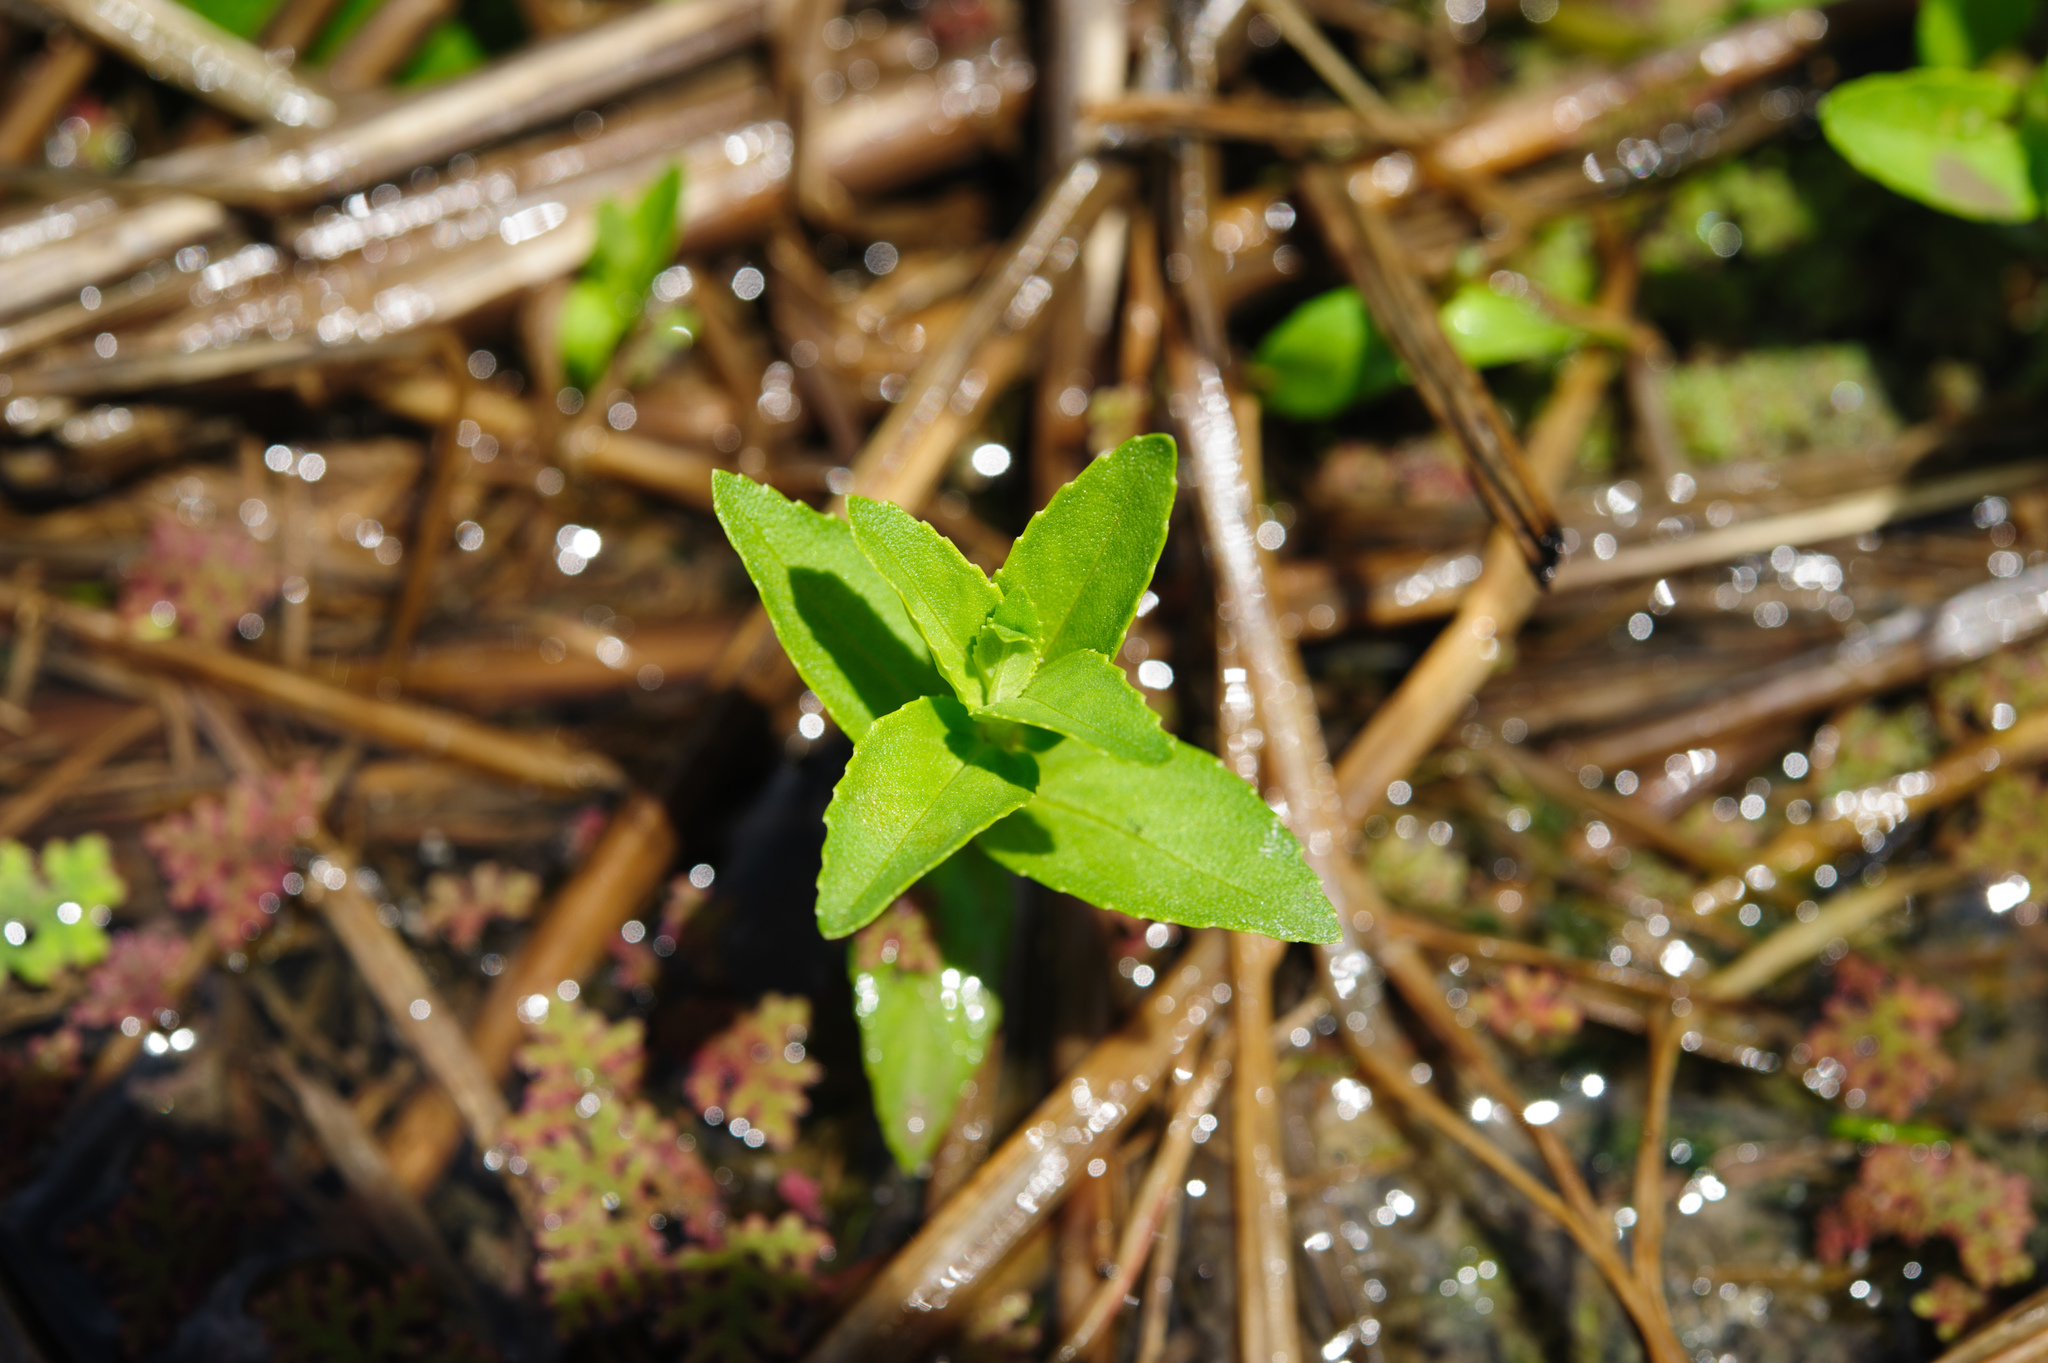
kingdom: Plantae
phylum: Tracheophyta
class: Magnoliopsida
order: Lamiales
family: Plantaginaceae
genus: Limnophila
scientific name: Limnophila aromatica
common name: Finger grass
